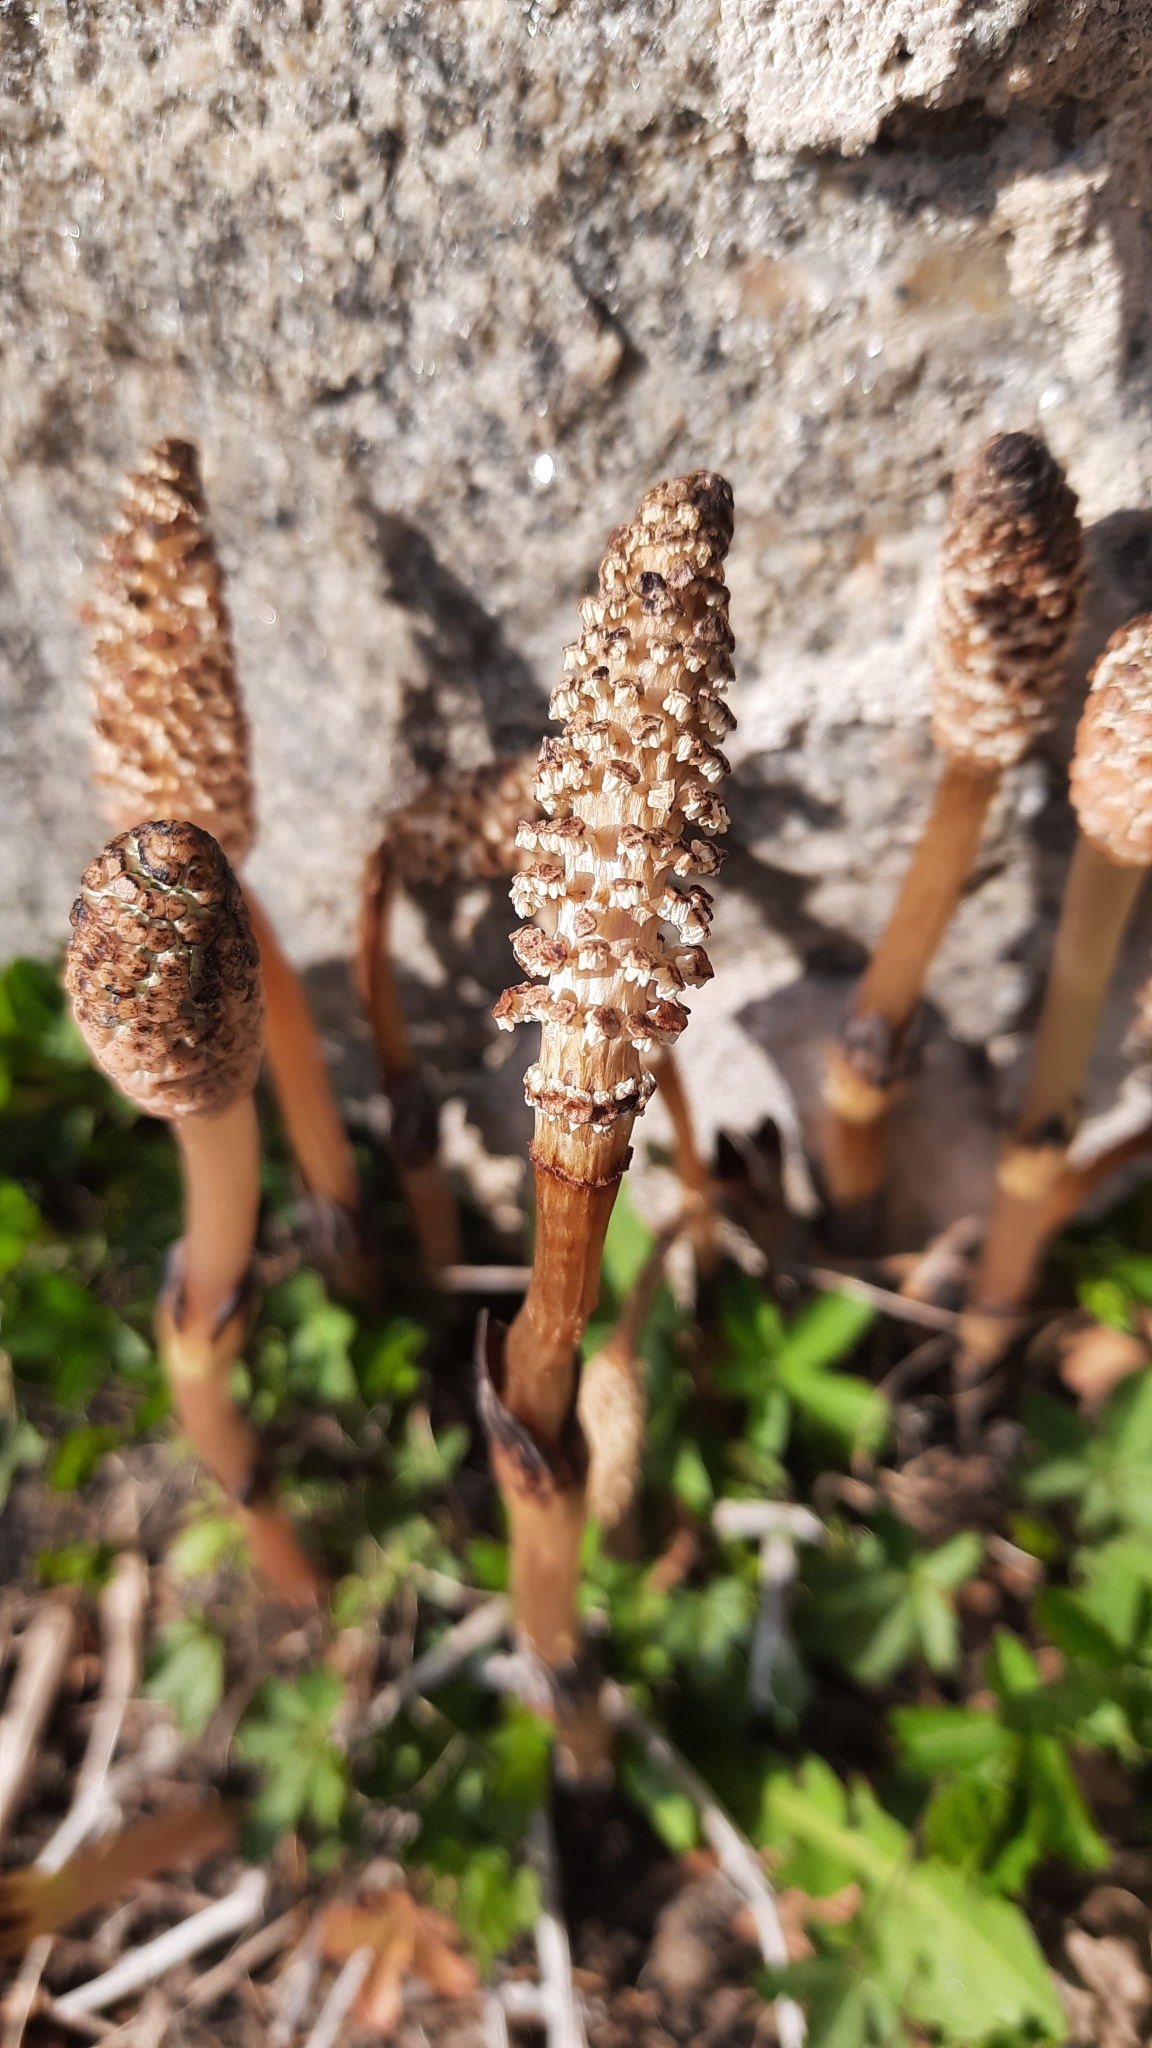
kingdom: Plantae
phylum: Tracheophyta
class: Polypodiopsida
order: Equisetales
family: Equisetaceae
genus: Equisetum
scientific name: Equisetum arvense
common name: Field horsetail
